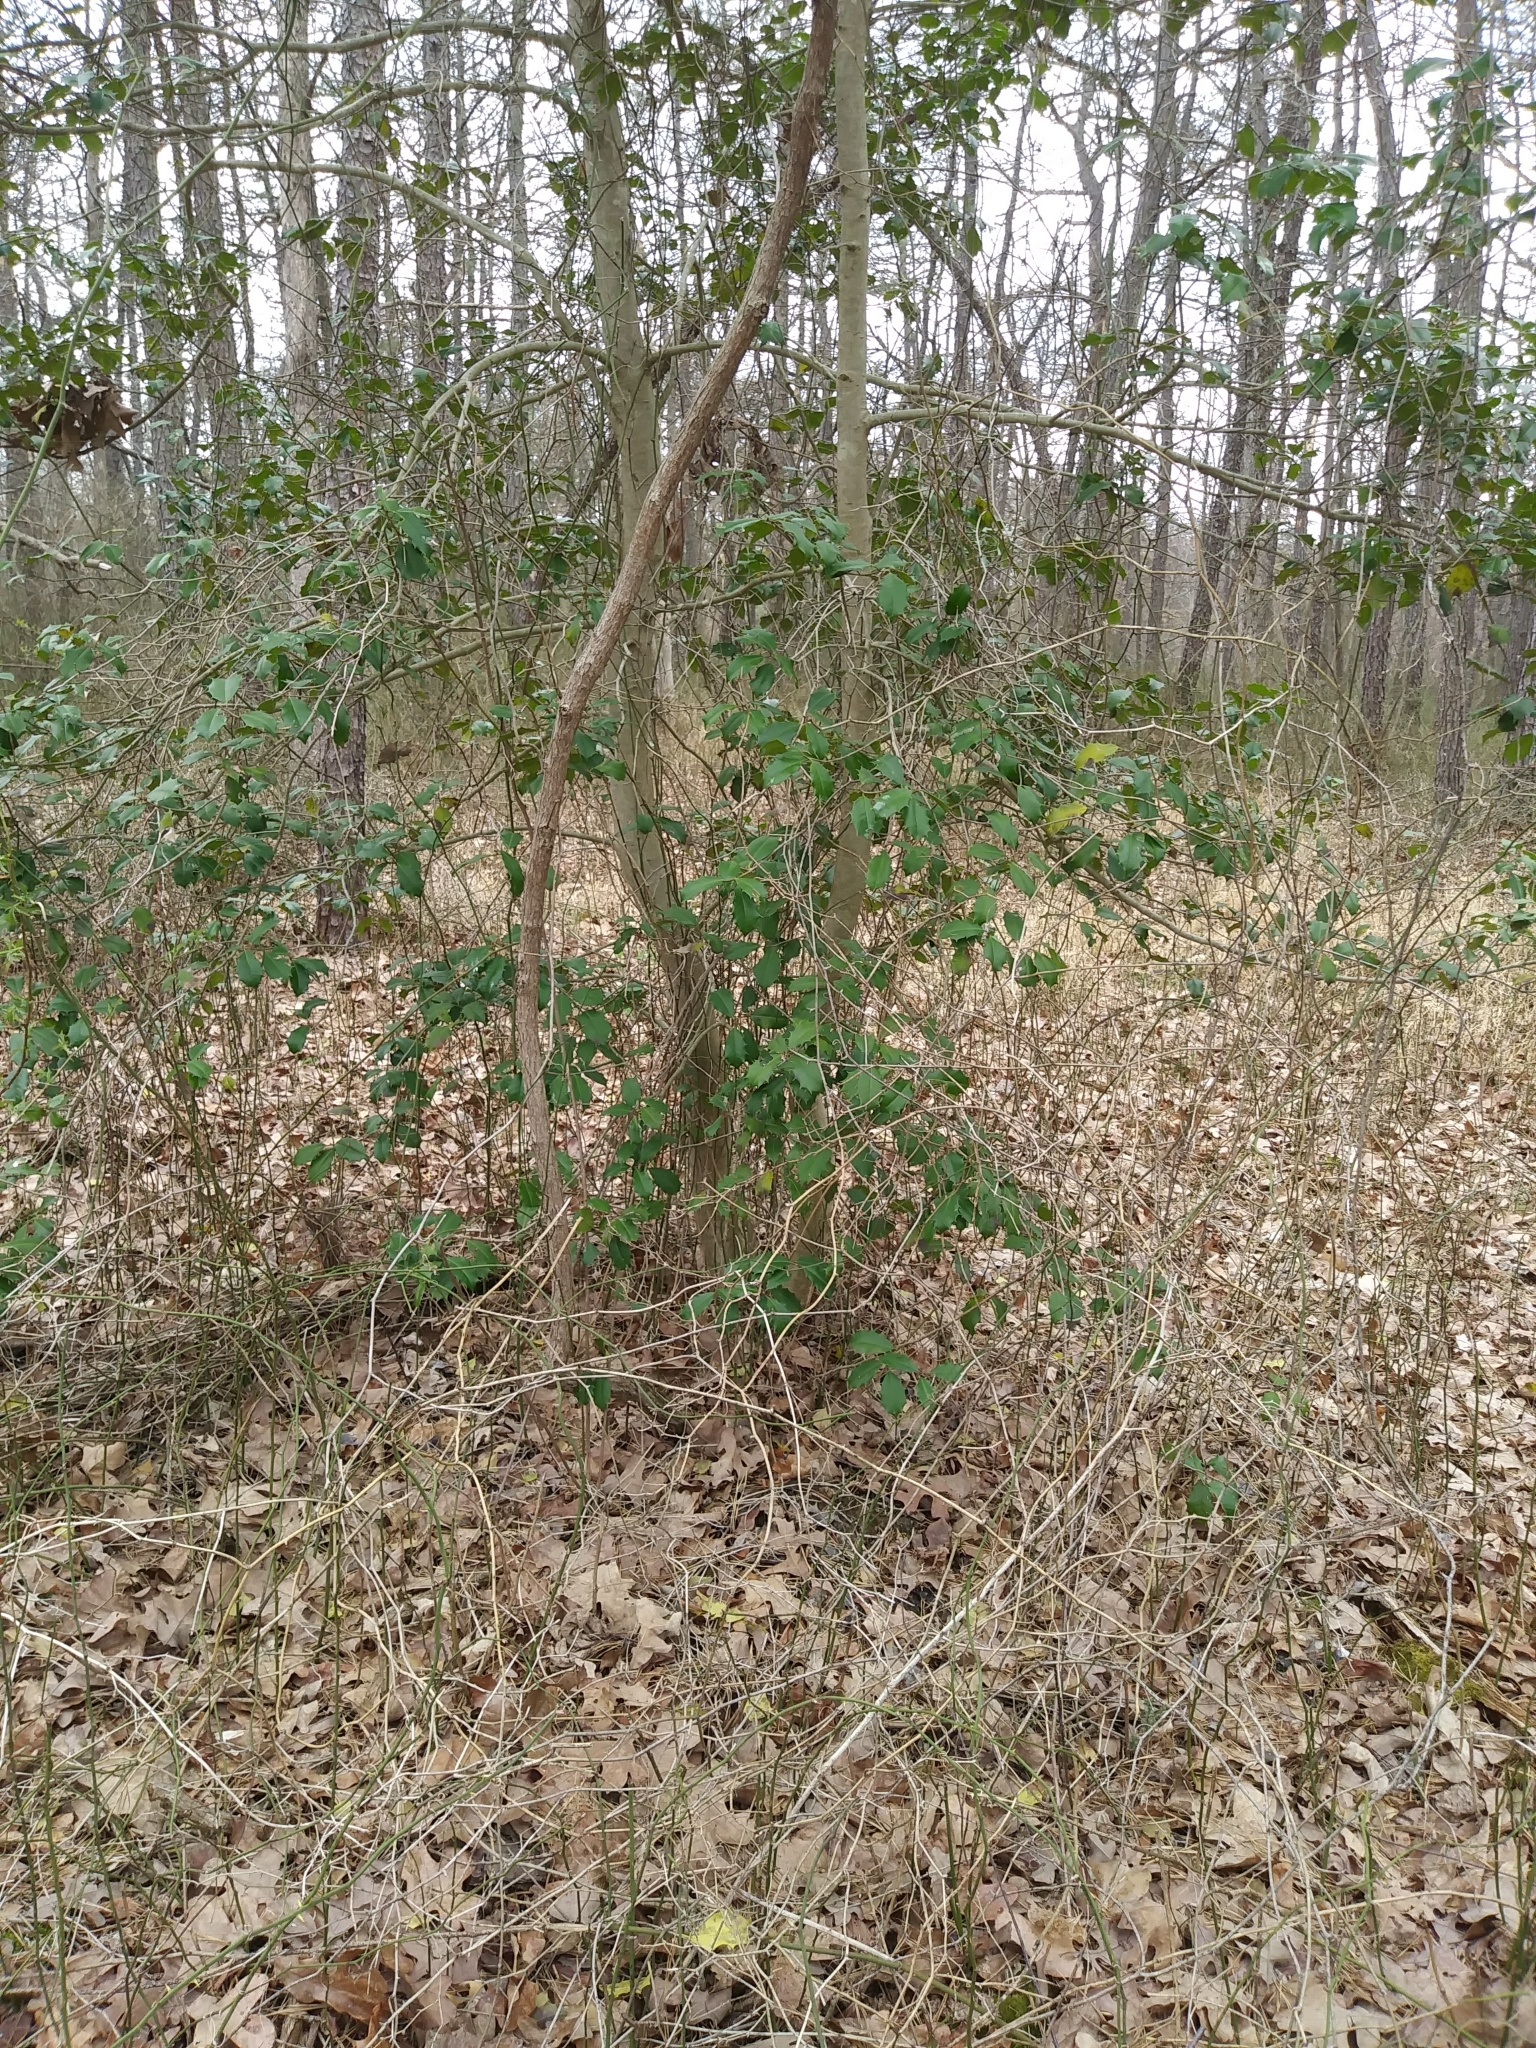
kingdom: Plantae
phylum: Tracheophyta
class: Magnoliopsida
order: Aquifoliales
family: Aquifoliaceae
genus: Ilex
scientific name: Ilex opaca
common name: American holly
